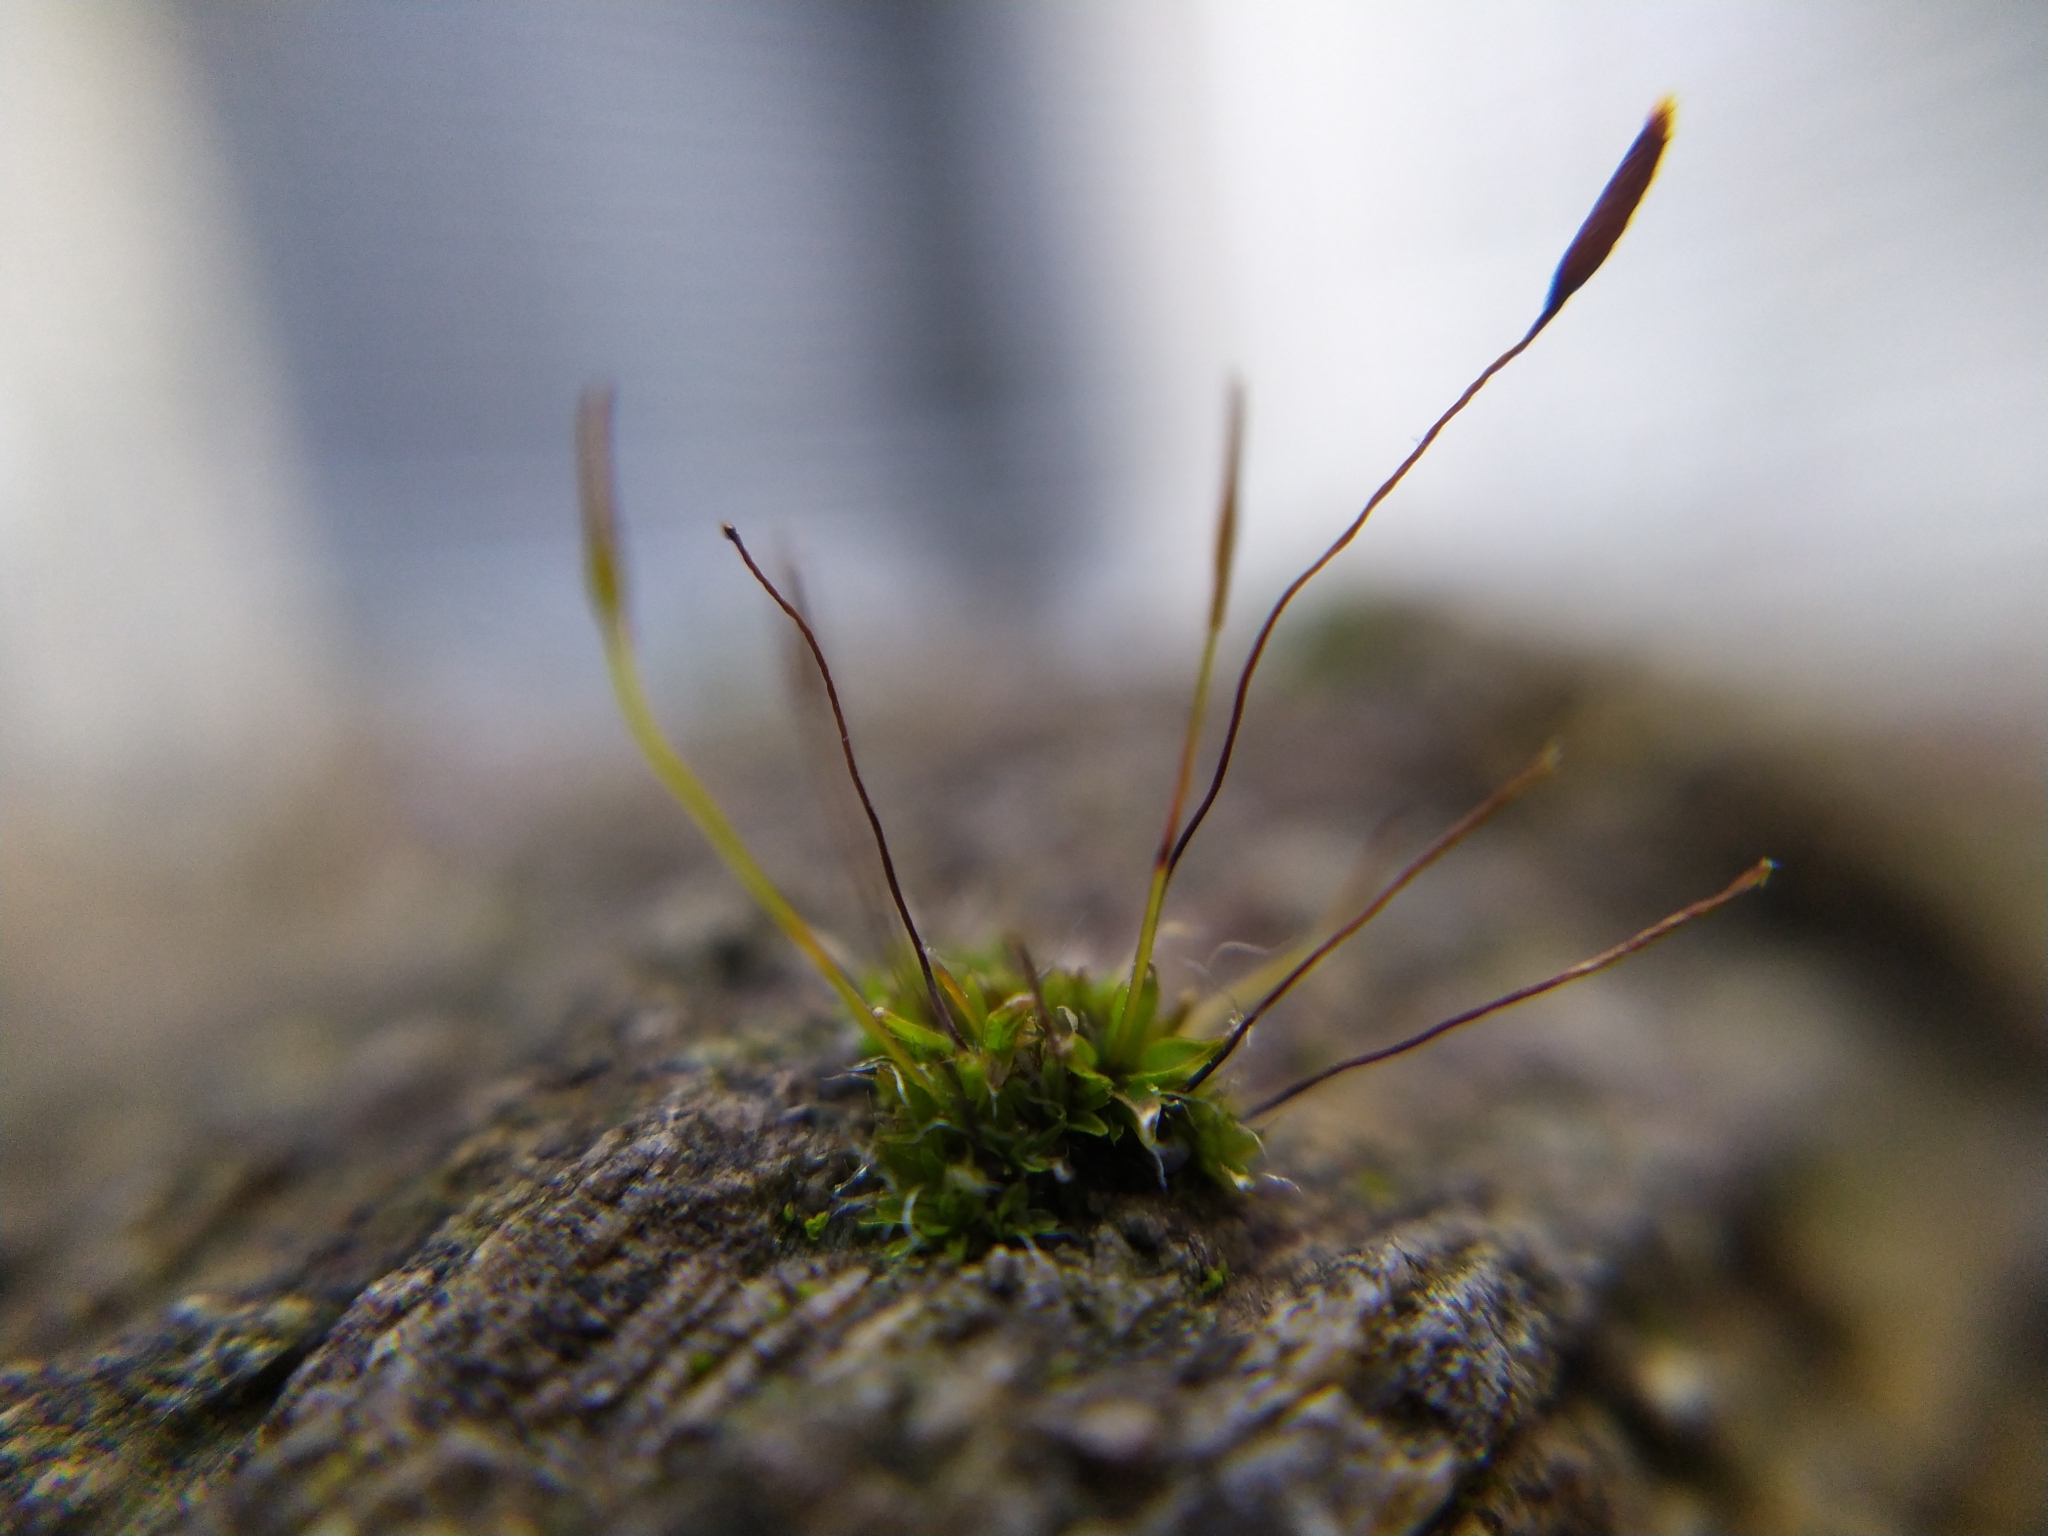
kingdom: Plantae
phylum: Bryophyta
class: Bryopsida
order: Pottiales
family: Pottiaceae
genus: Tortula
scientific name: Tortula muralis
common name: Wall screw-moss
